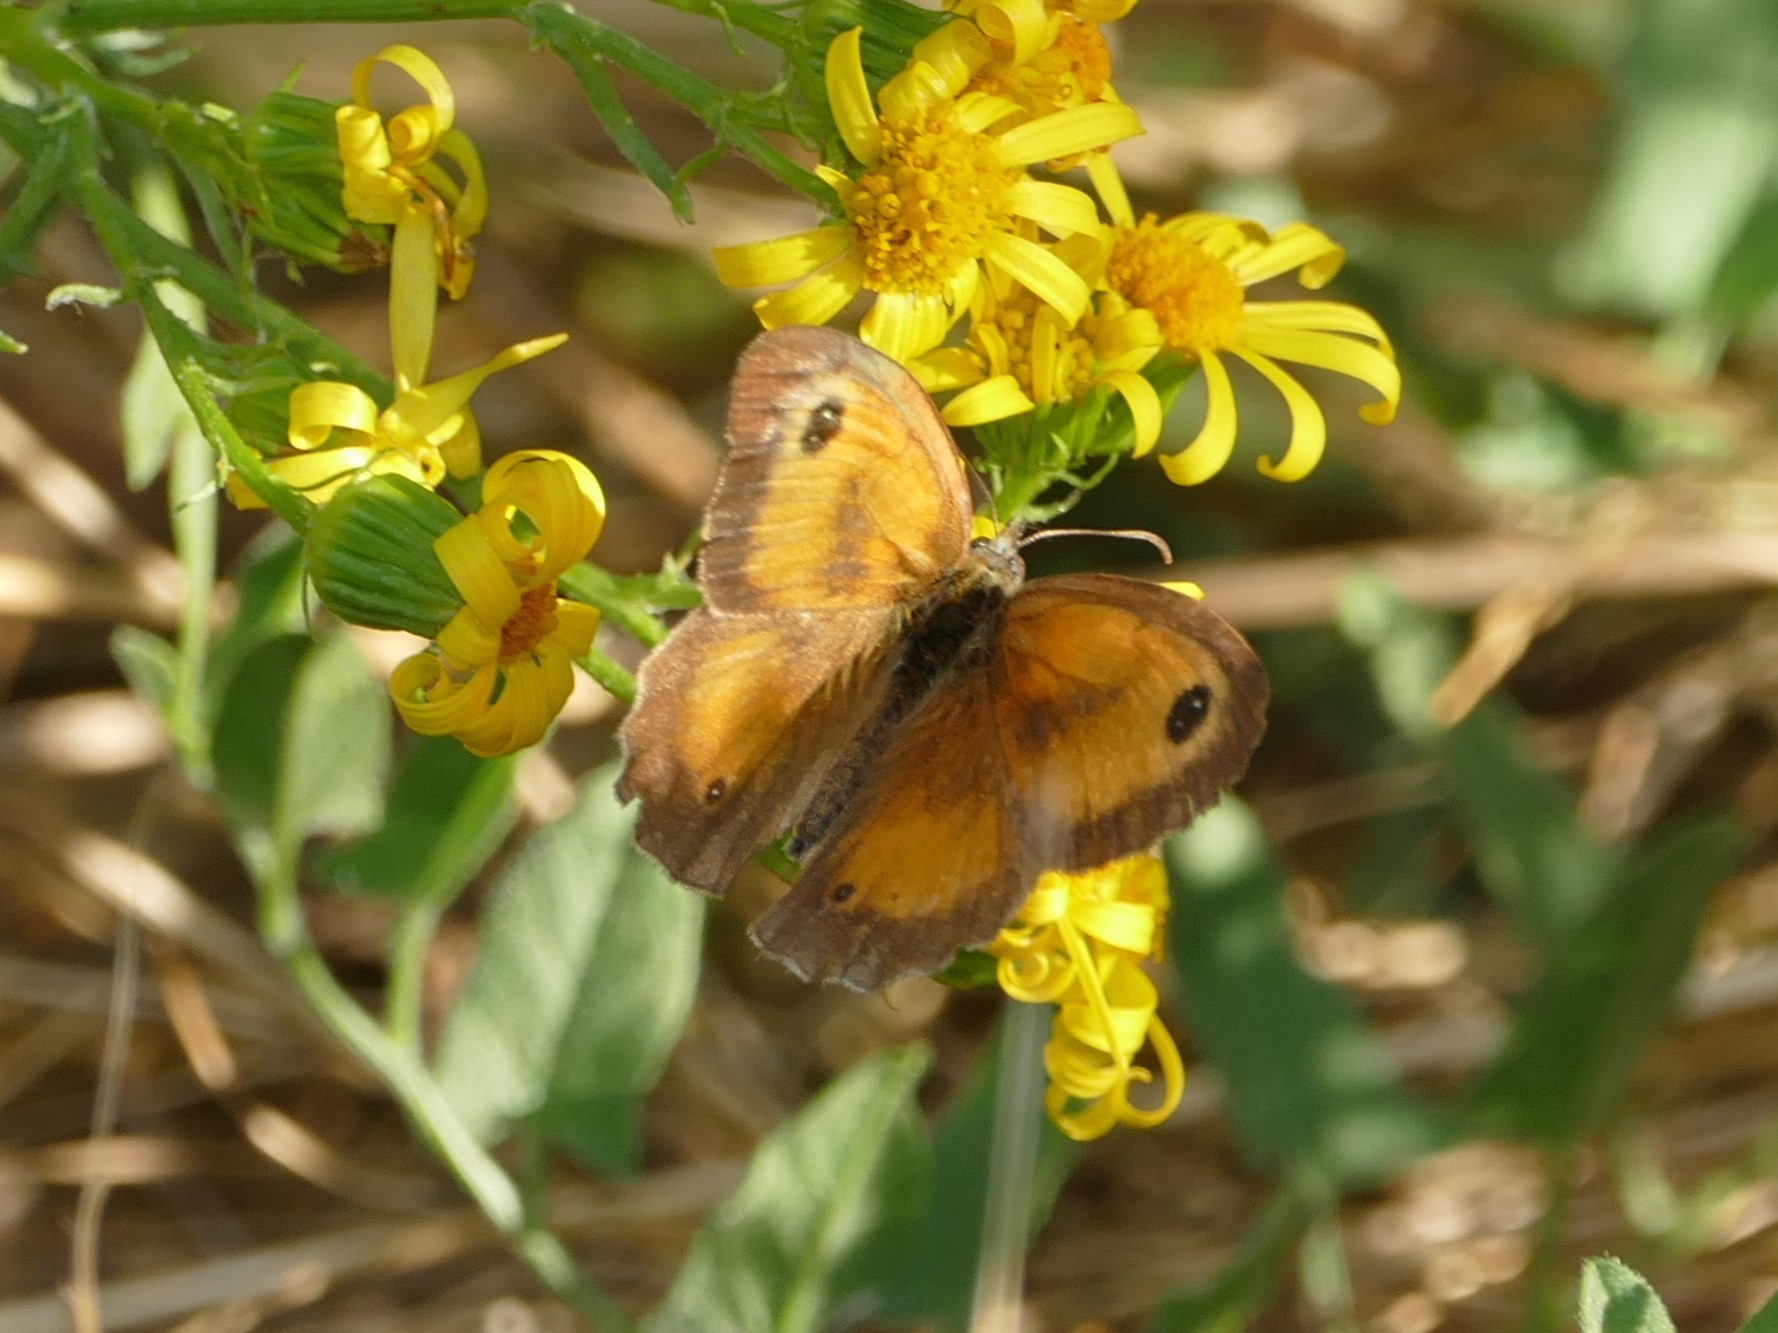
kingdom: Animalia
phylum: Arthropoda
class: Insecta
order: Lepidoptera
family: Nymphalidae
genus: Pyronia
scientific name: Pyronia tithonus
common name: Gatekeeper
